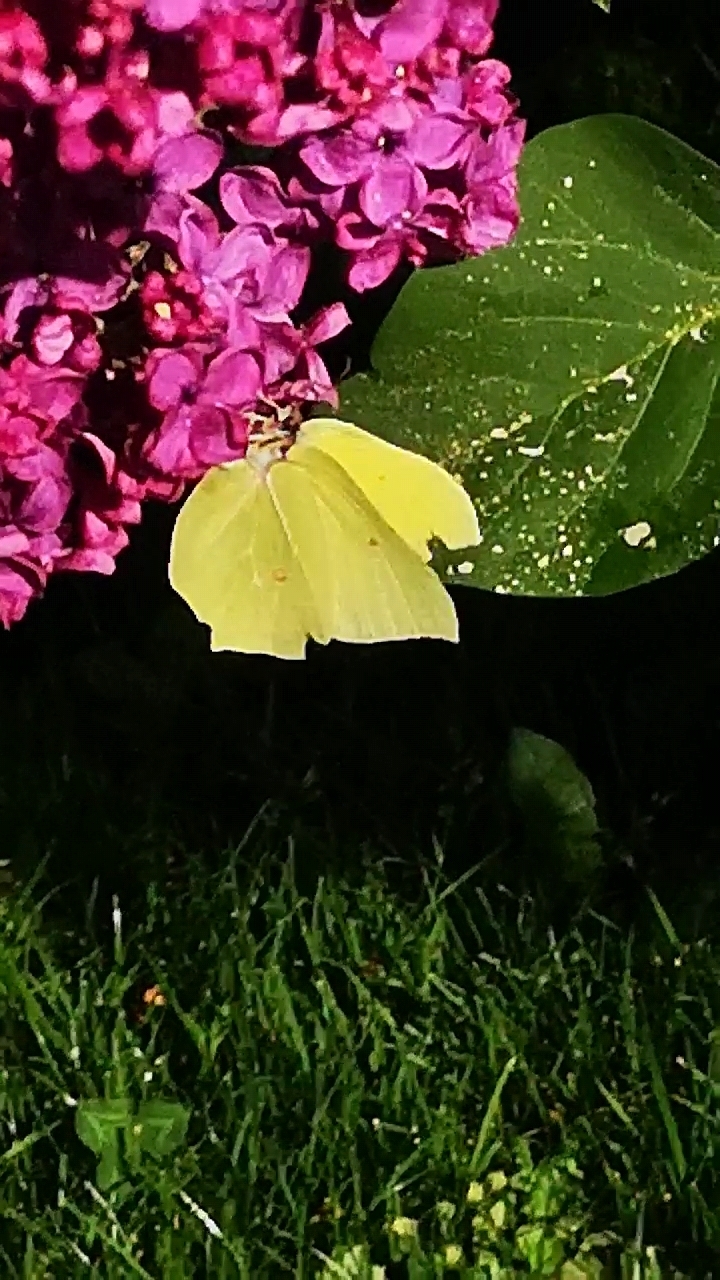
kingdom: Animalia
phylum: Arthropoda
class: Insecta
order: Lepidoptera
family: Pieridae
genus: Gonepteryx
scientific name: Gonepteryx rhamni
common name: Brimstone
